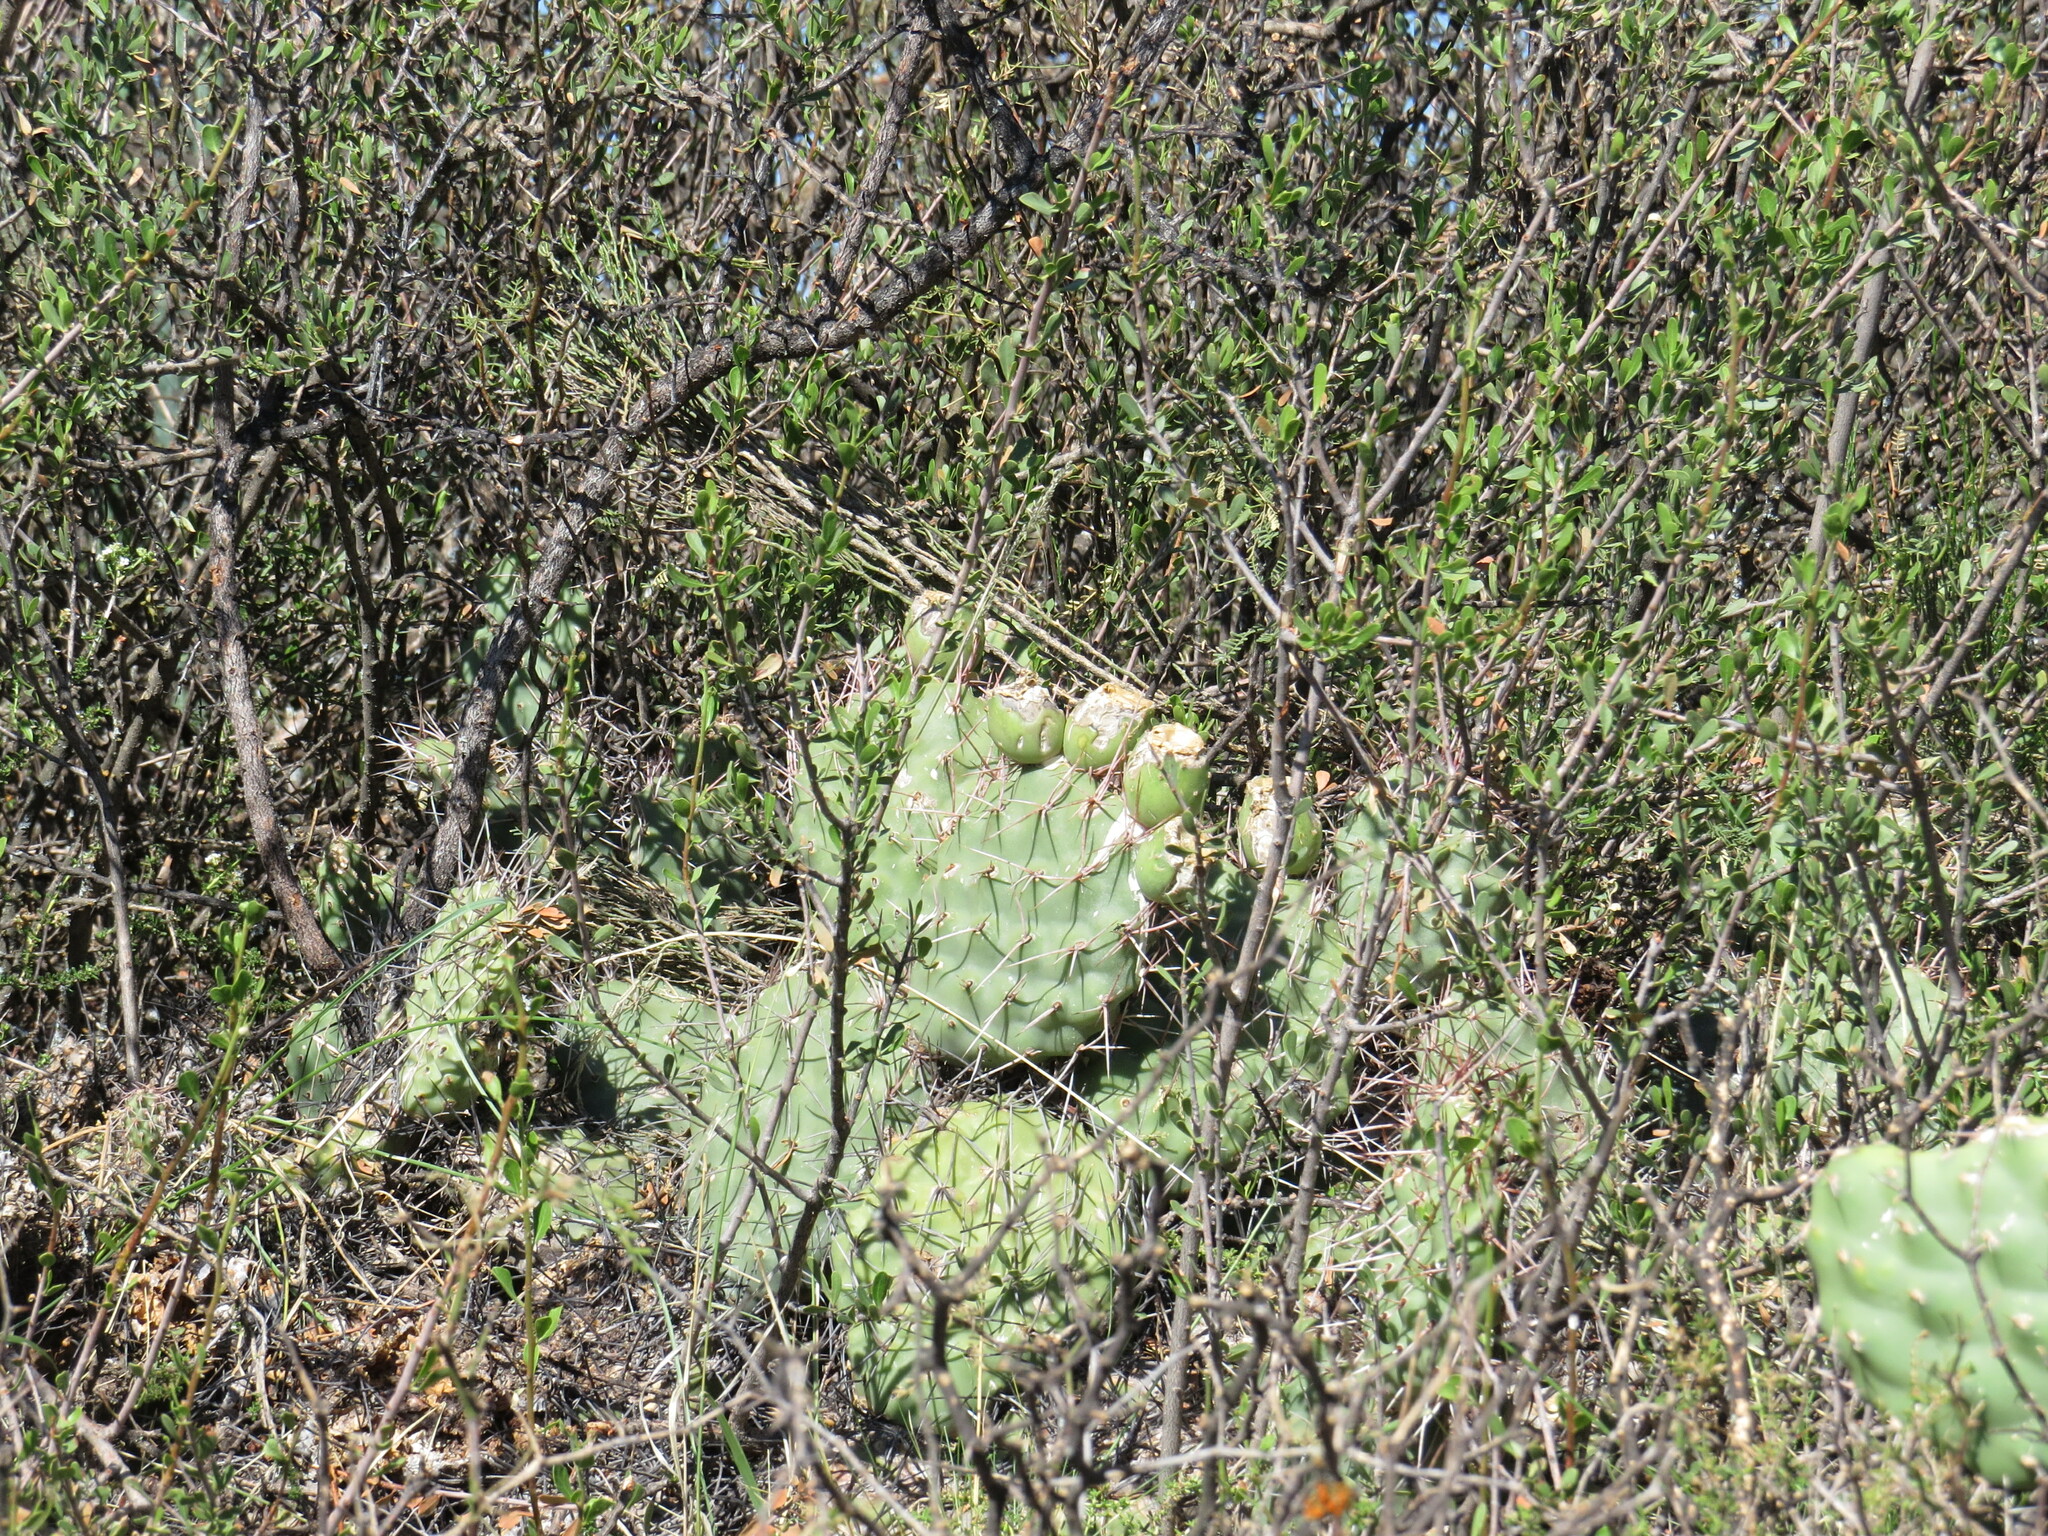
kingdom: Plantae
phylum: Tracheophyta
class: Magnoliopsida
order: Caryophyllales
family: Cactaceae
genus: Opuntia
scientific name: Opuntia sulphurea
